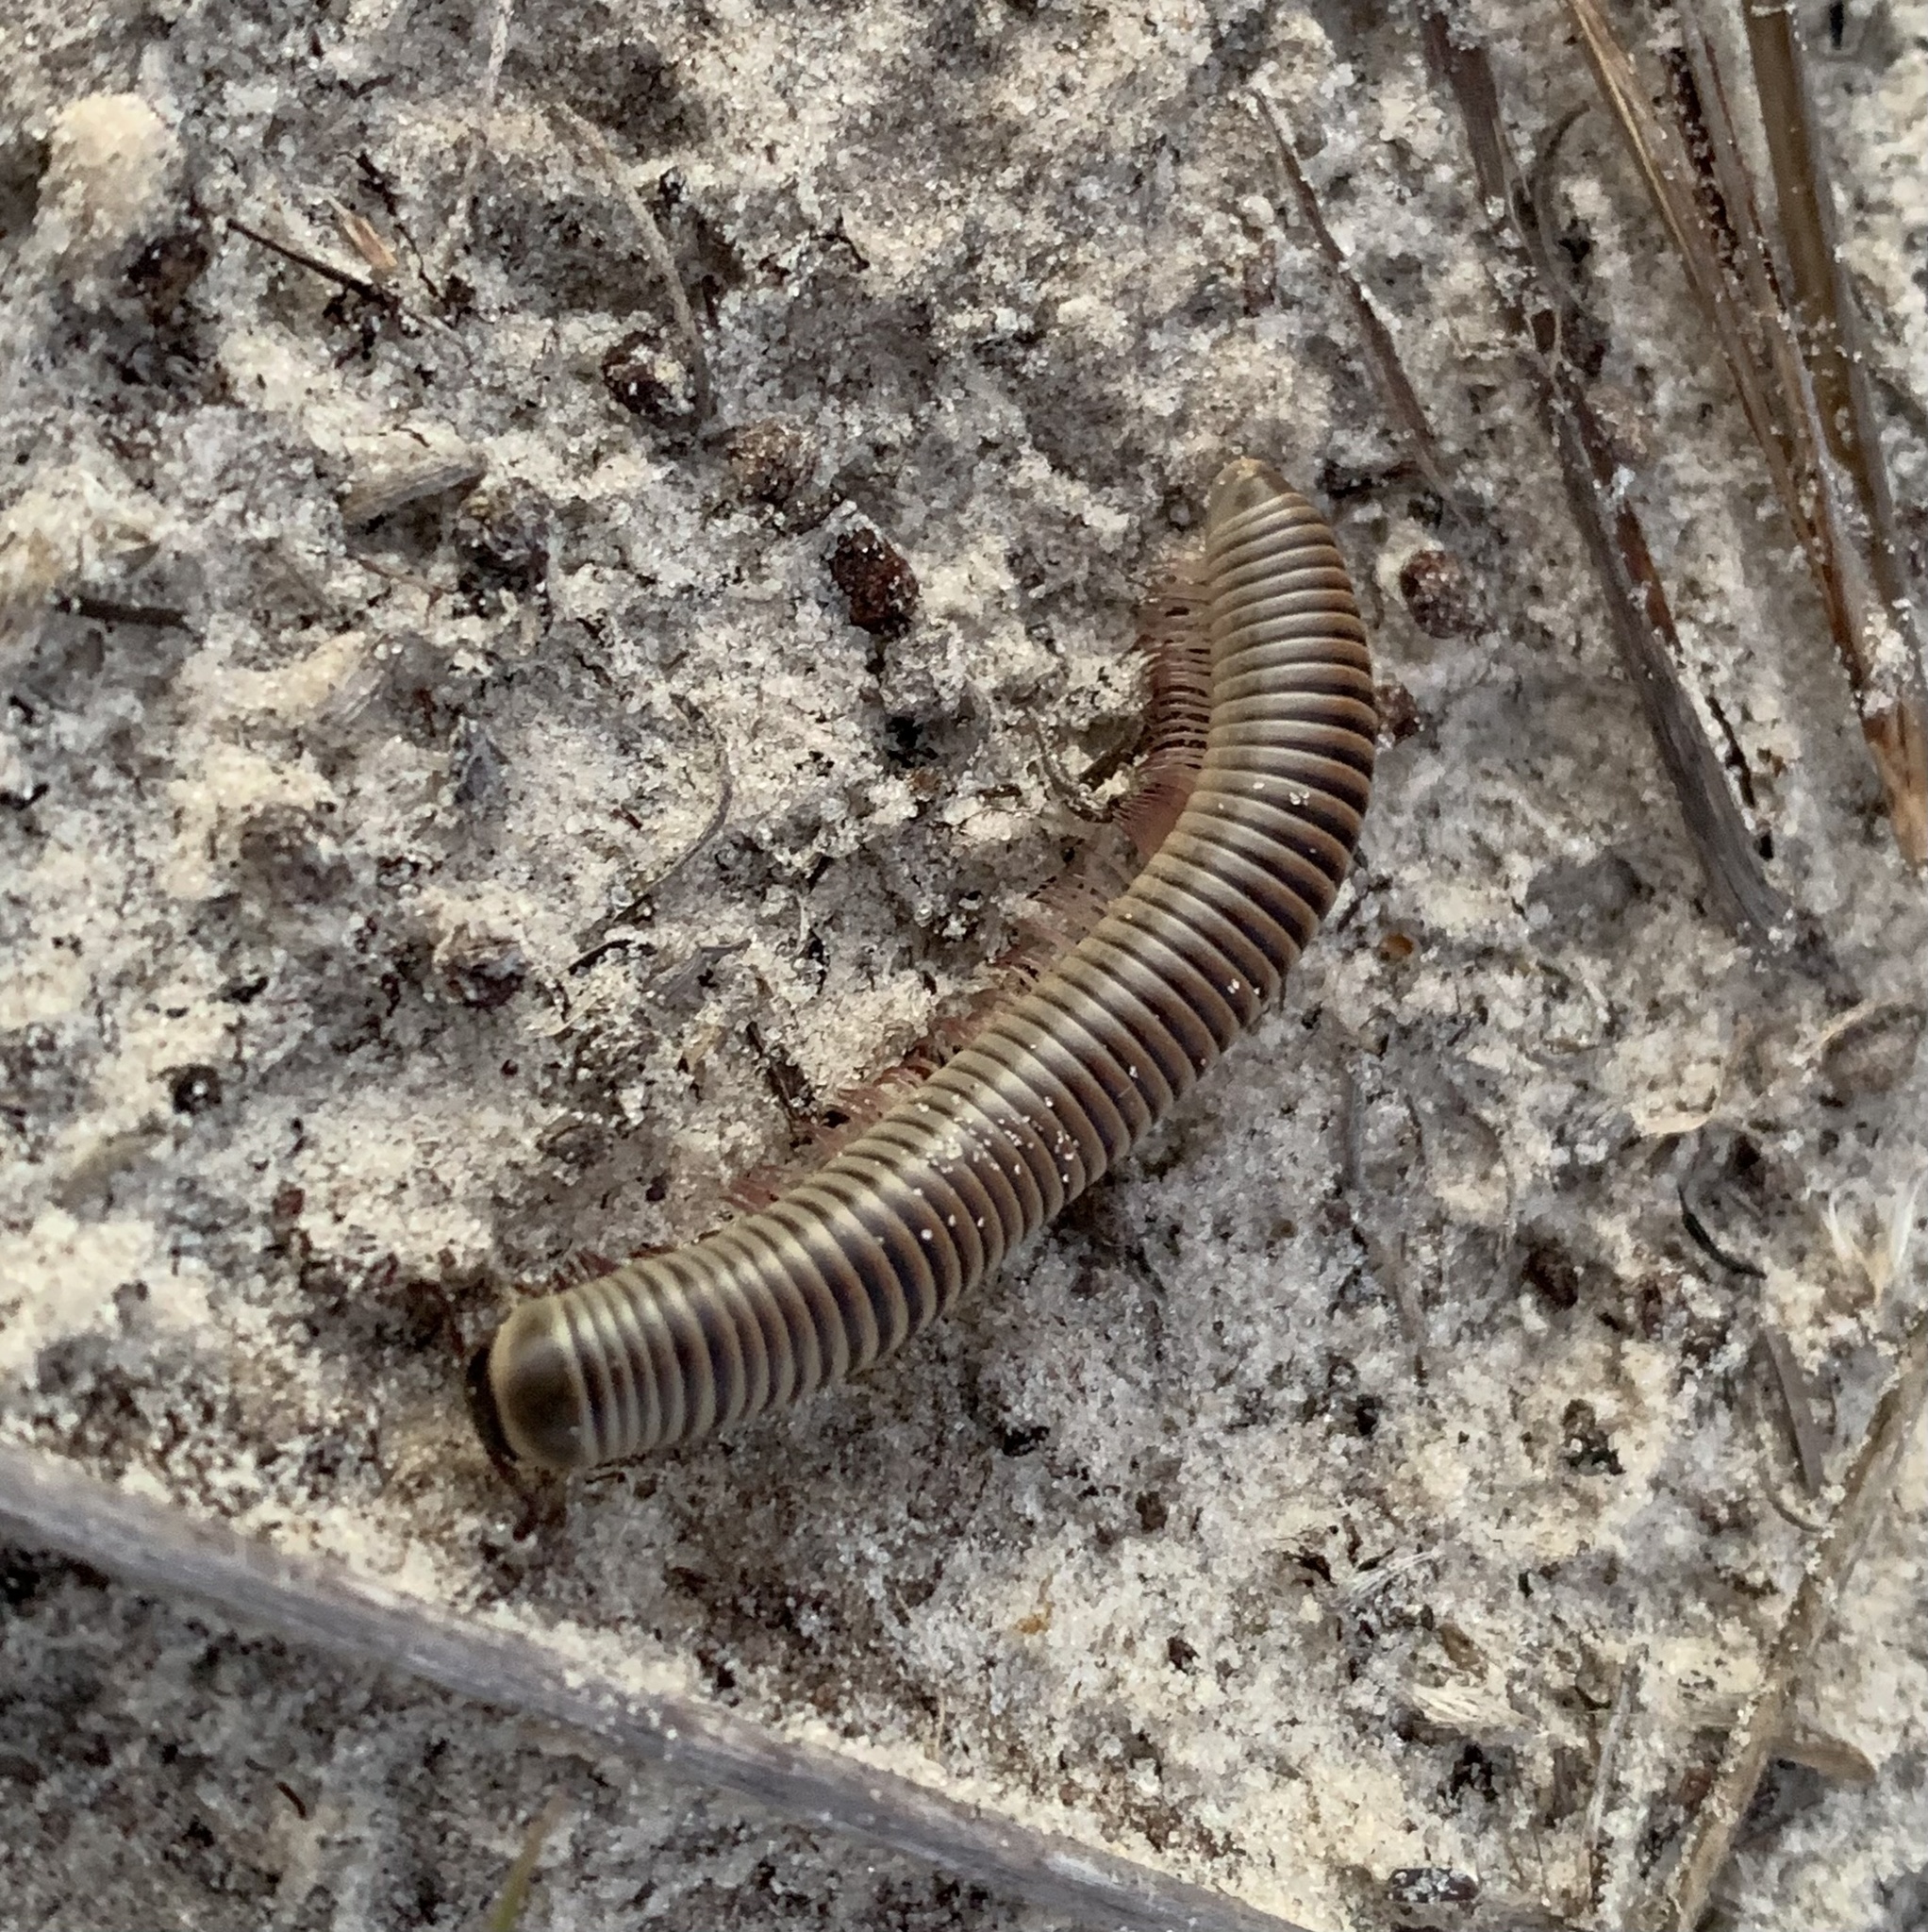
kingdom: Animalia
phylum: Arthropoda
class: Diplopoda
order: Spirobolida
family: Spirobolidae
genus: Chicobolus
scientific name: Chicobolus spinigerus
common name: Florida ivory millipede
